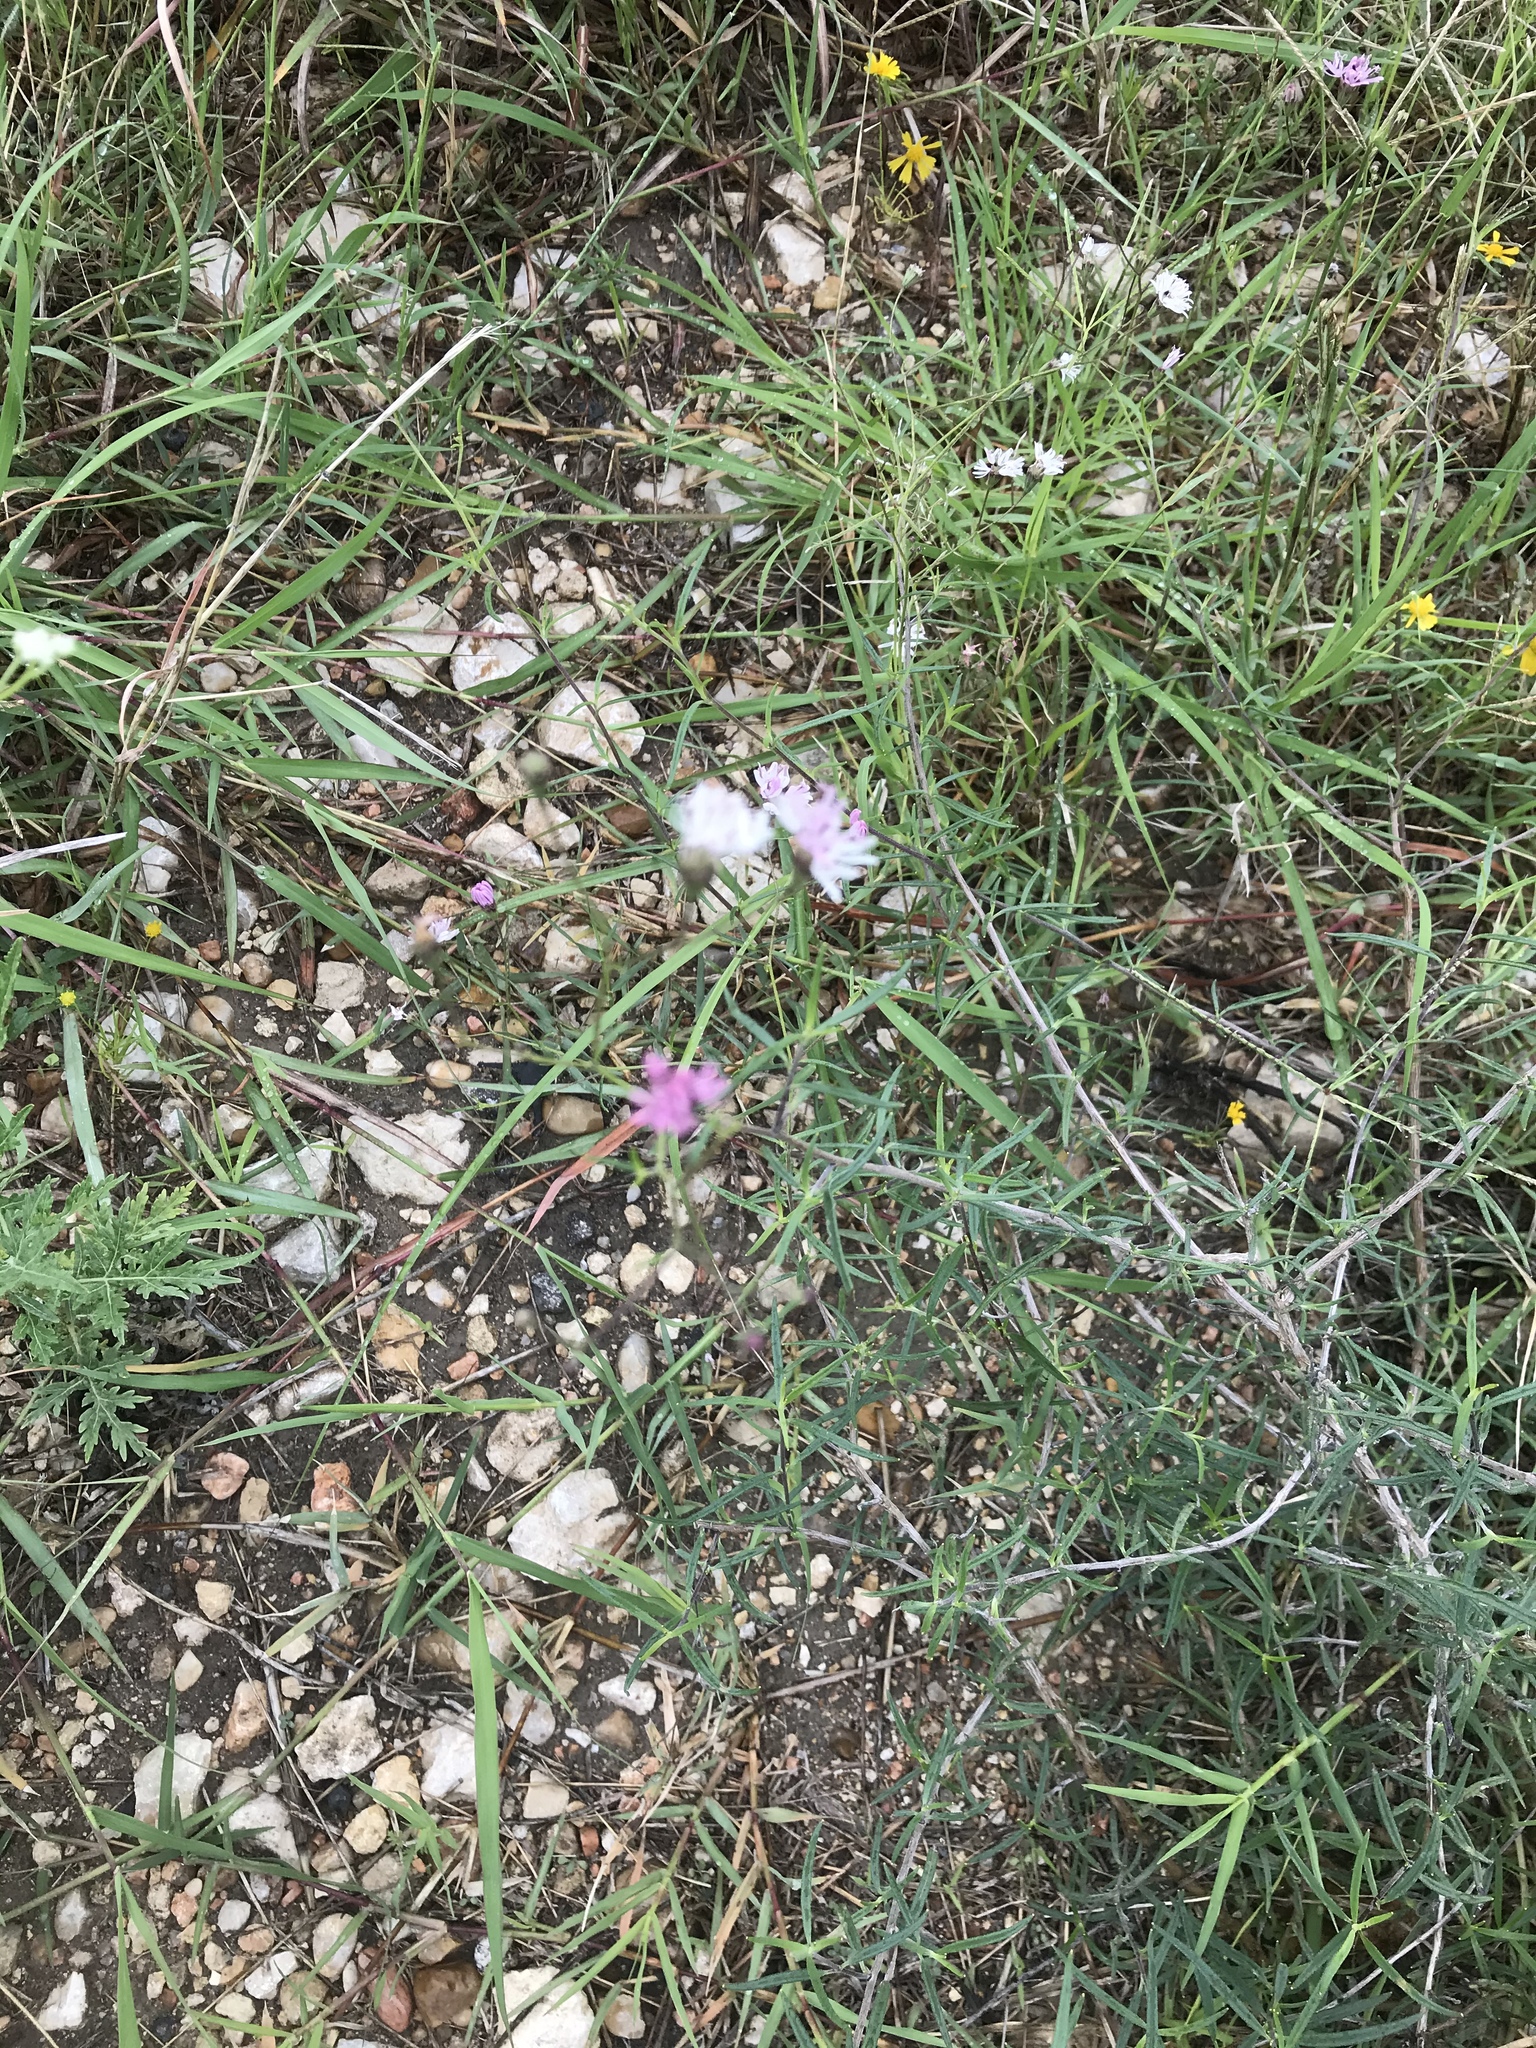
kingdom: Plantae
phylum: Tracheophyta
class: Magnoliopsida
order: Asterales
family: Asteraceae
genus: Palafoxia
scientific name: Palafoxia callosa
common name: Small palafox
